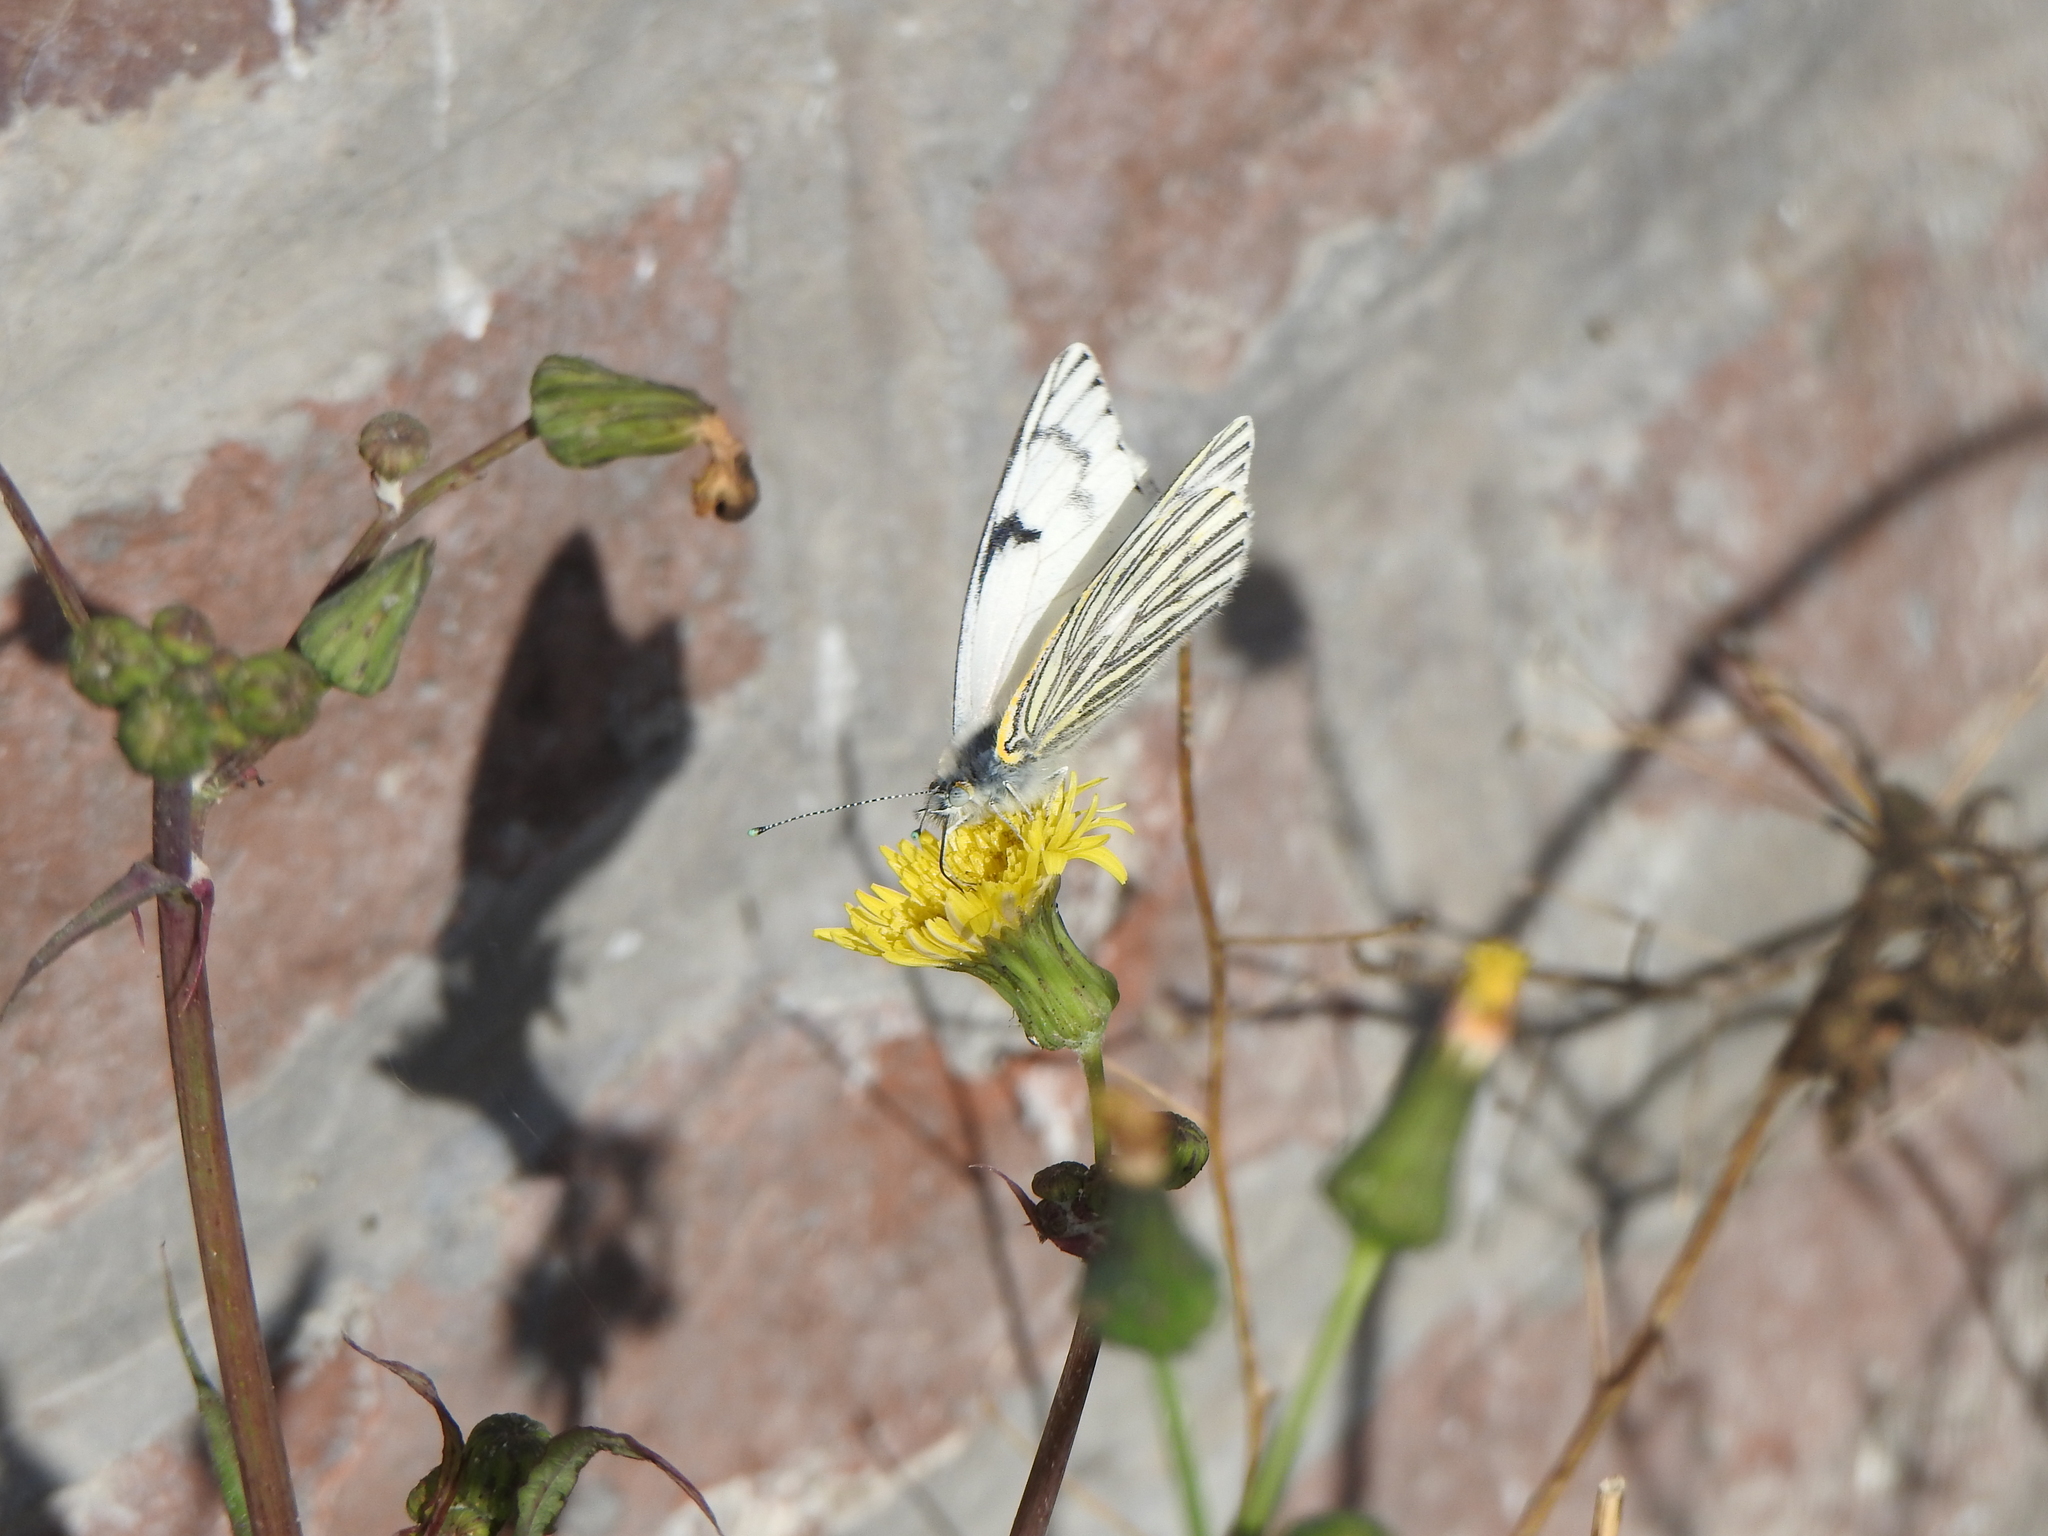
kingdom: Animalia
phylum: Arthropoda
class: Insecta
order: Lepidoptera
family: Pieridae
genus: Tatochila
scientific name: Tatochila mercedis
